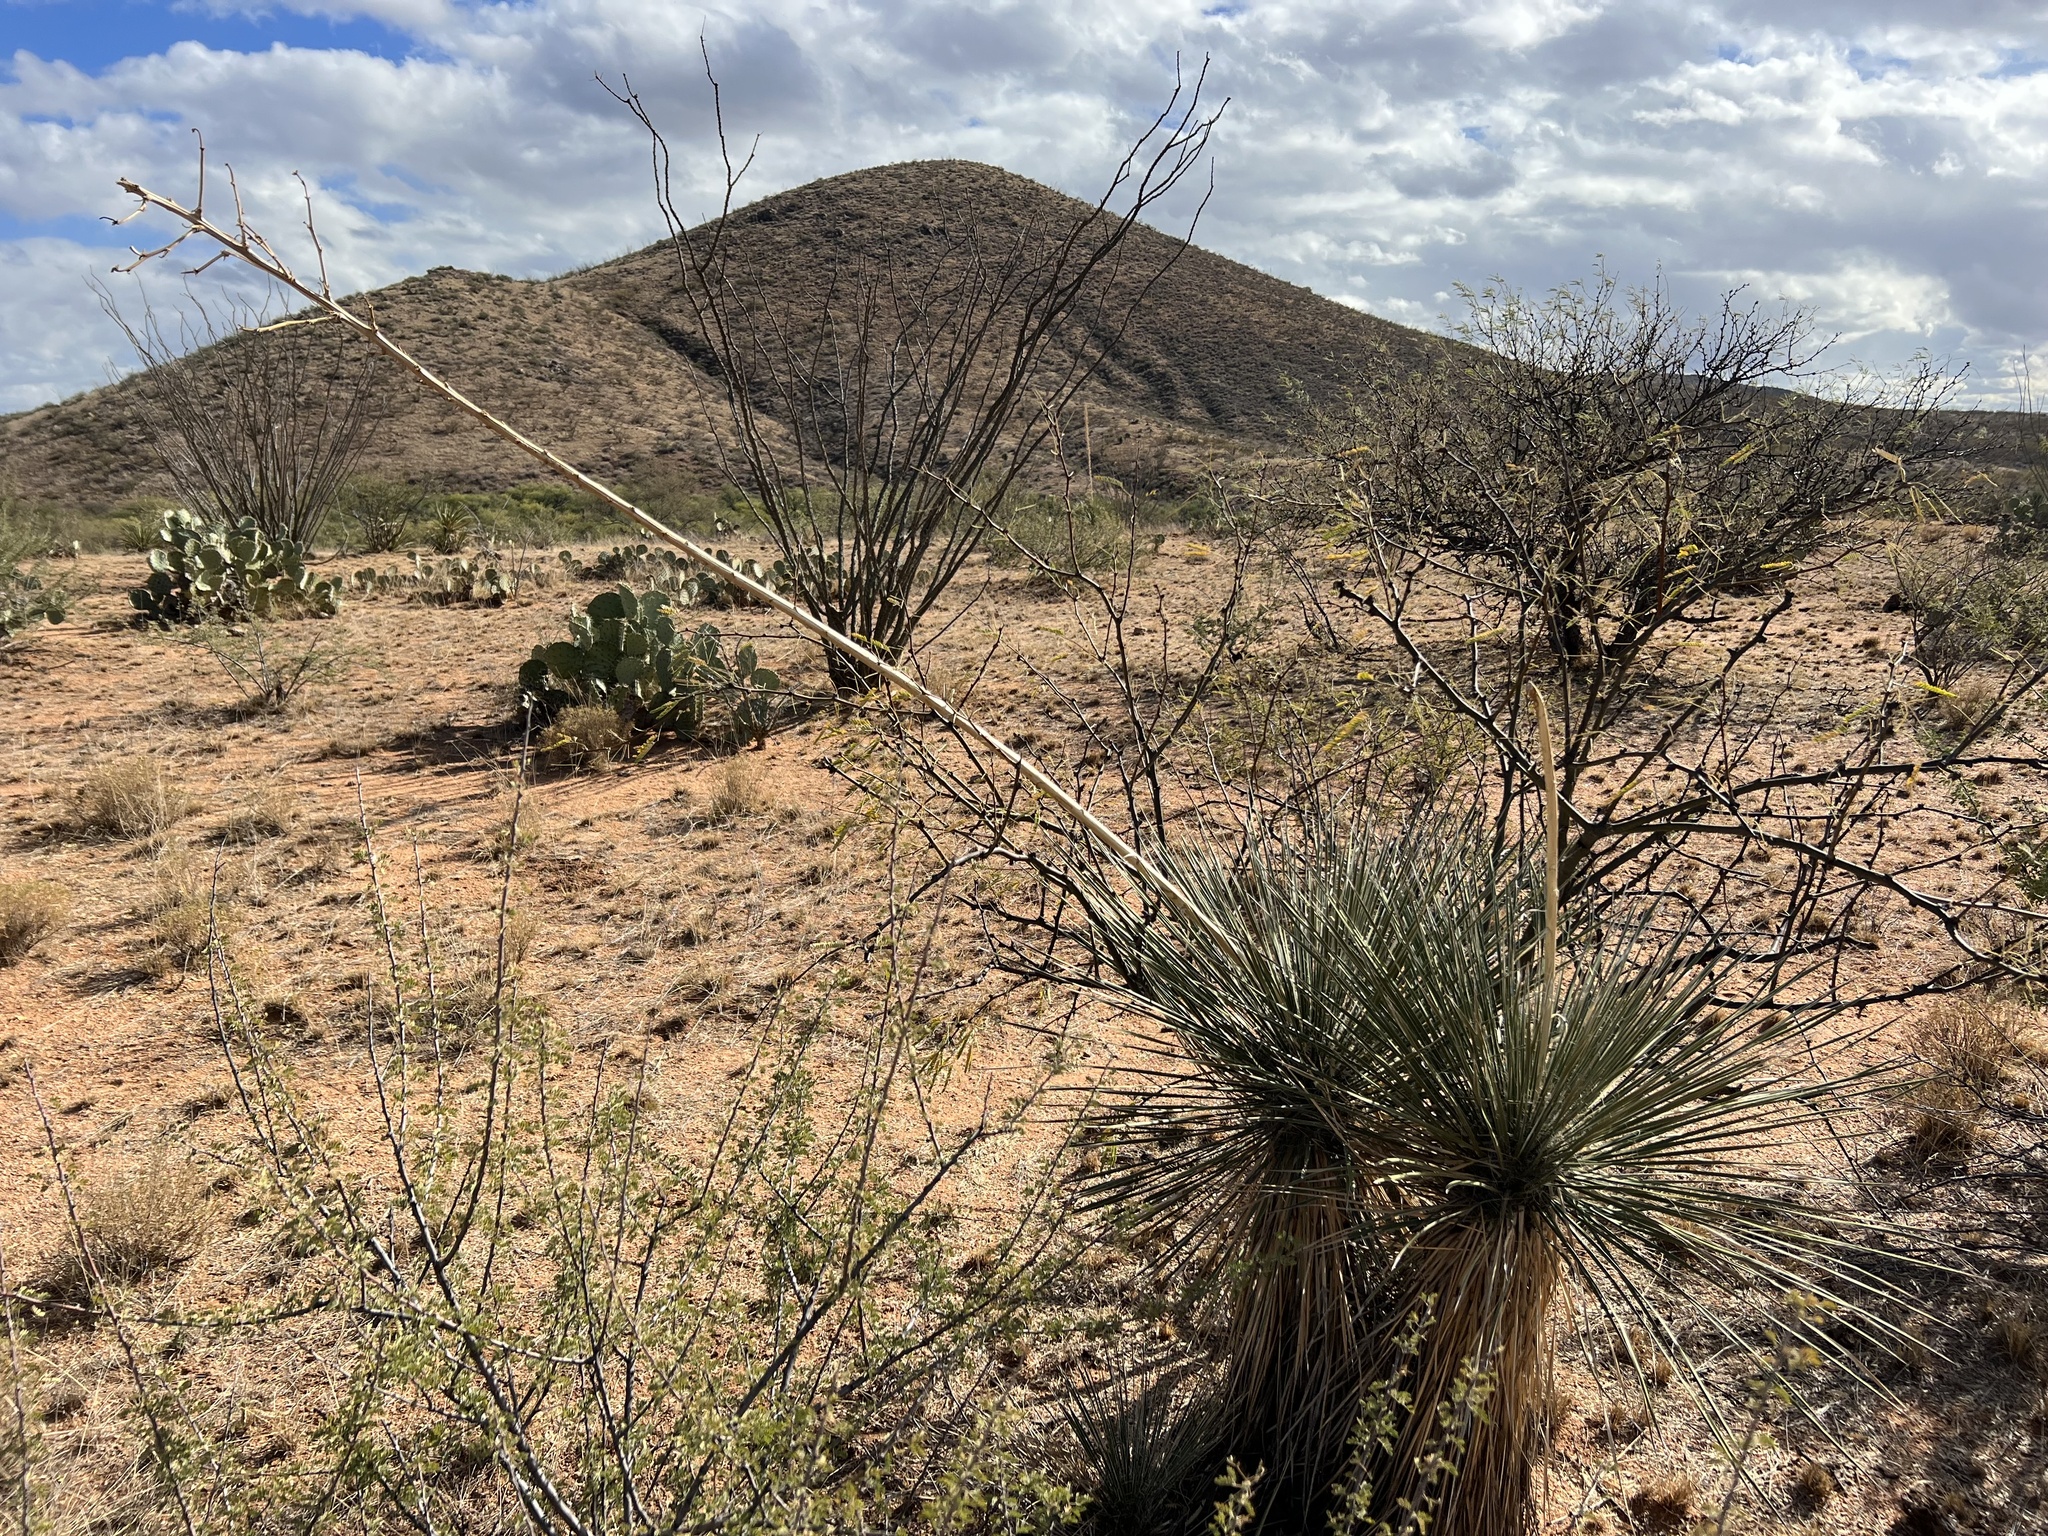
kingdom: Plantae
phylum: Tracheophyta
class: Liliopsida
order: Asparagales
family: Asparagaceae
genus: Yucca
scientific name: Yucca elata
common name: Palmella
